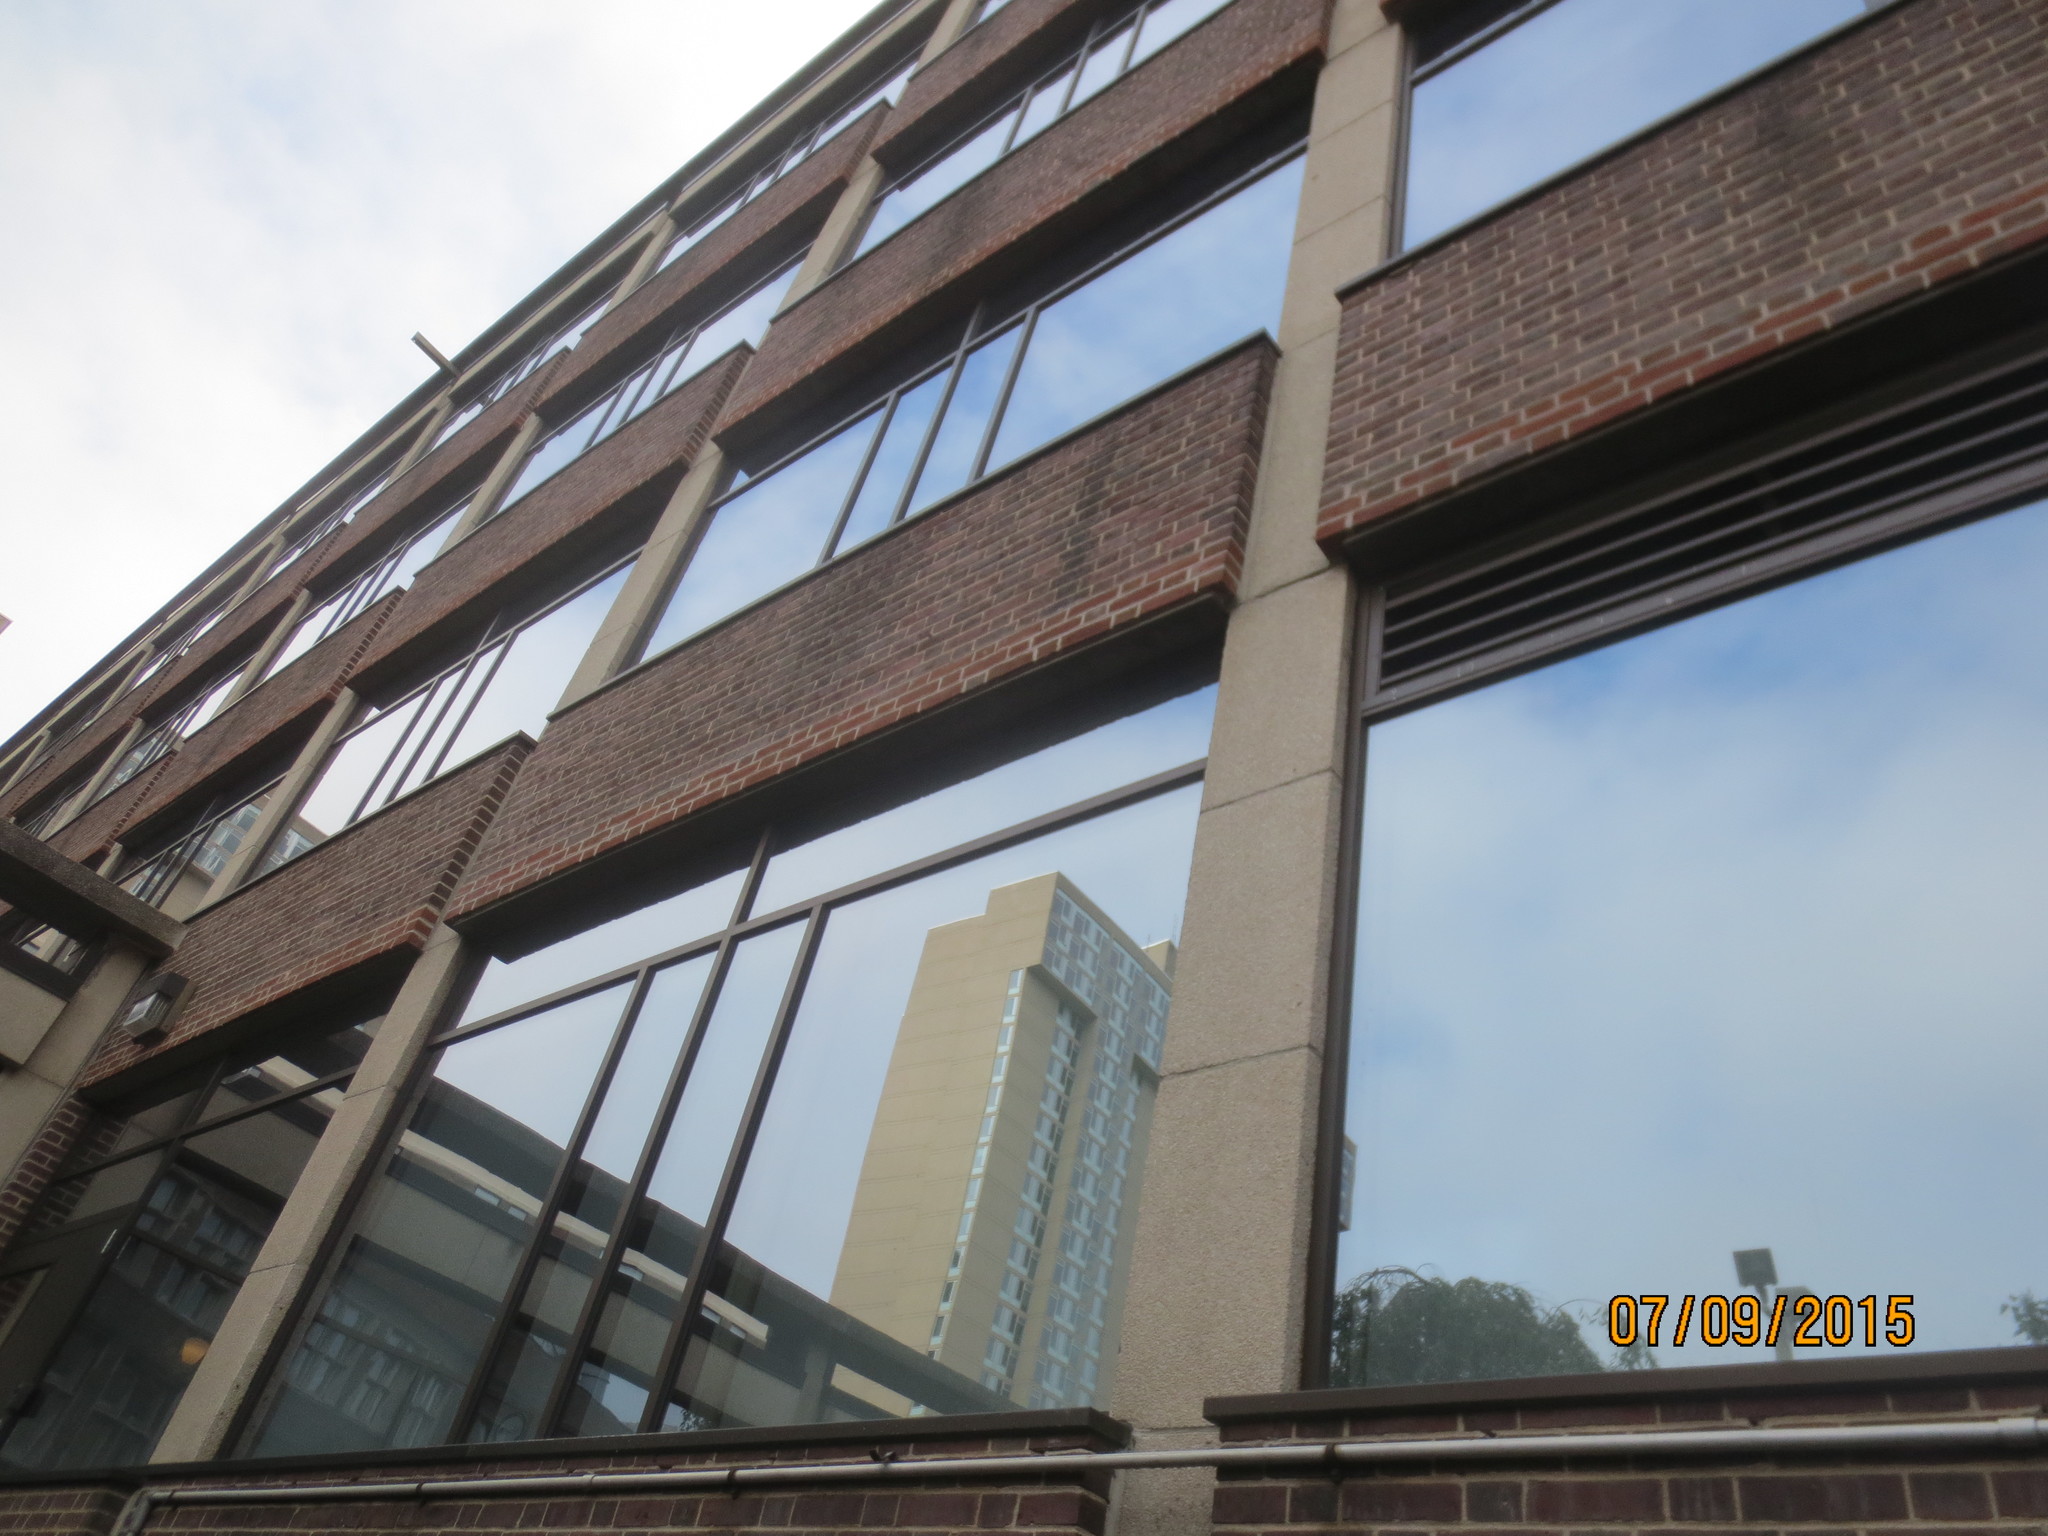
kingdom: Animalia
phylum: Chordata
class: Aves
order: Apodiformes
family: Apodidae
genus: Chaetura
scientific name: Chaetura pelagica
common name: Chimney swift
